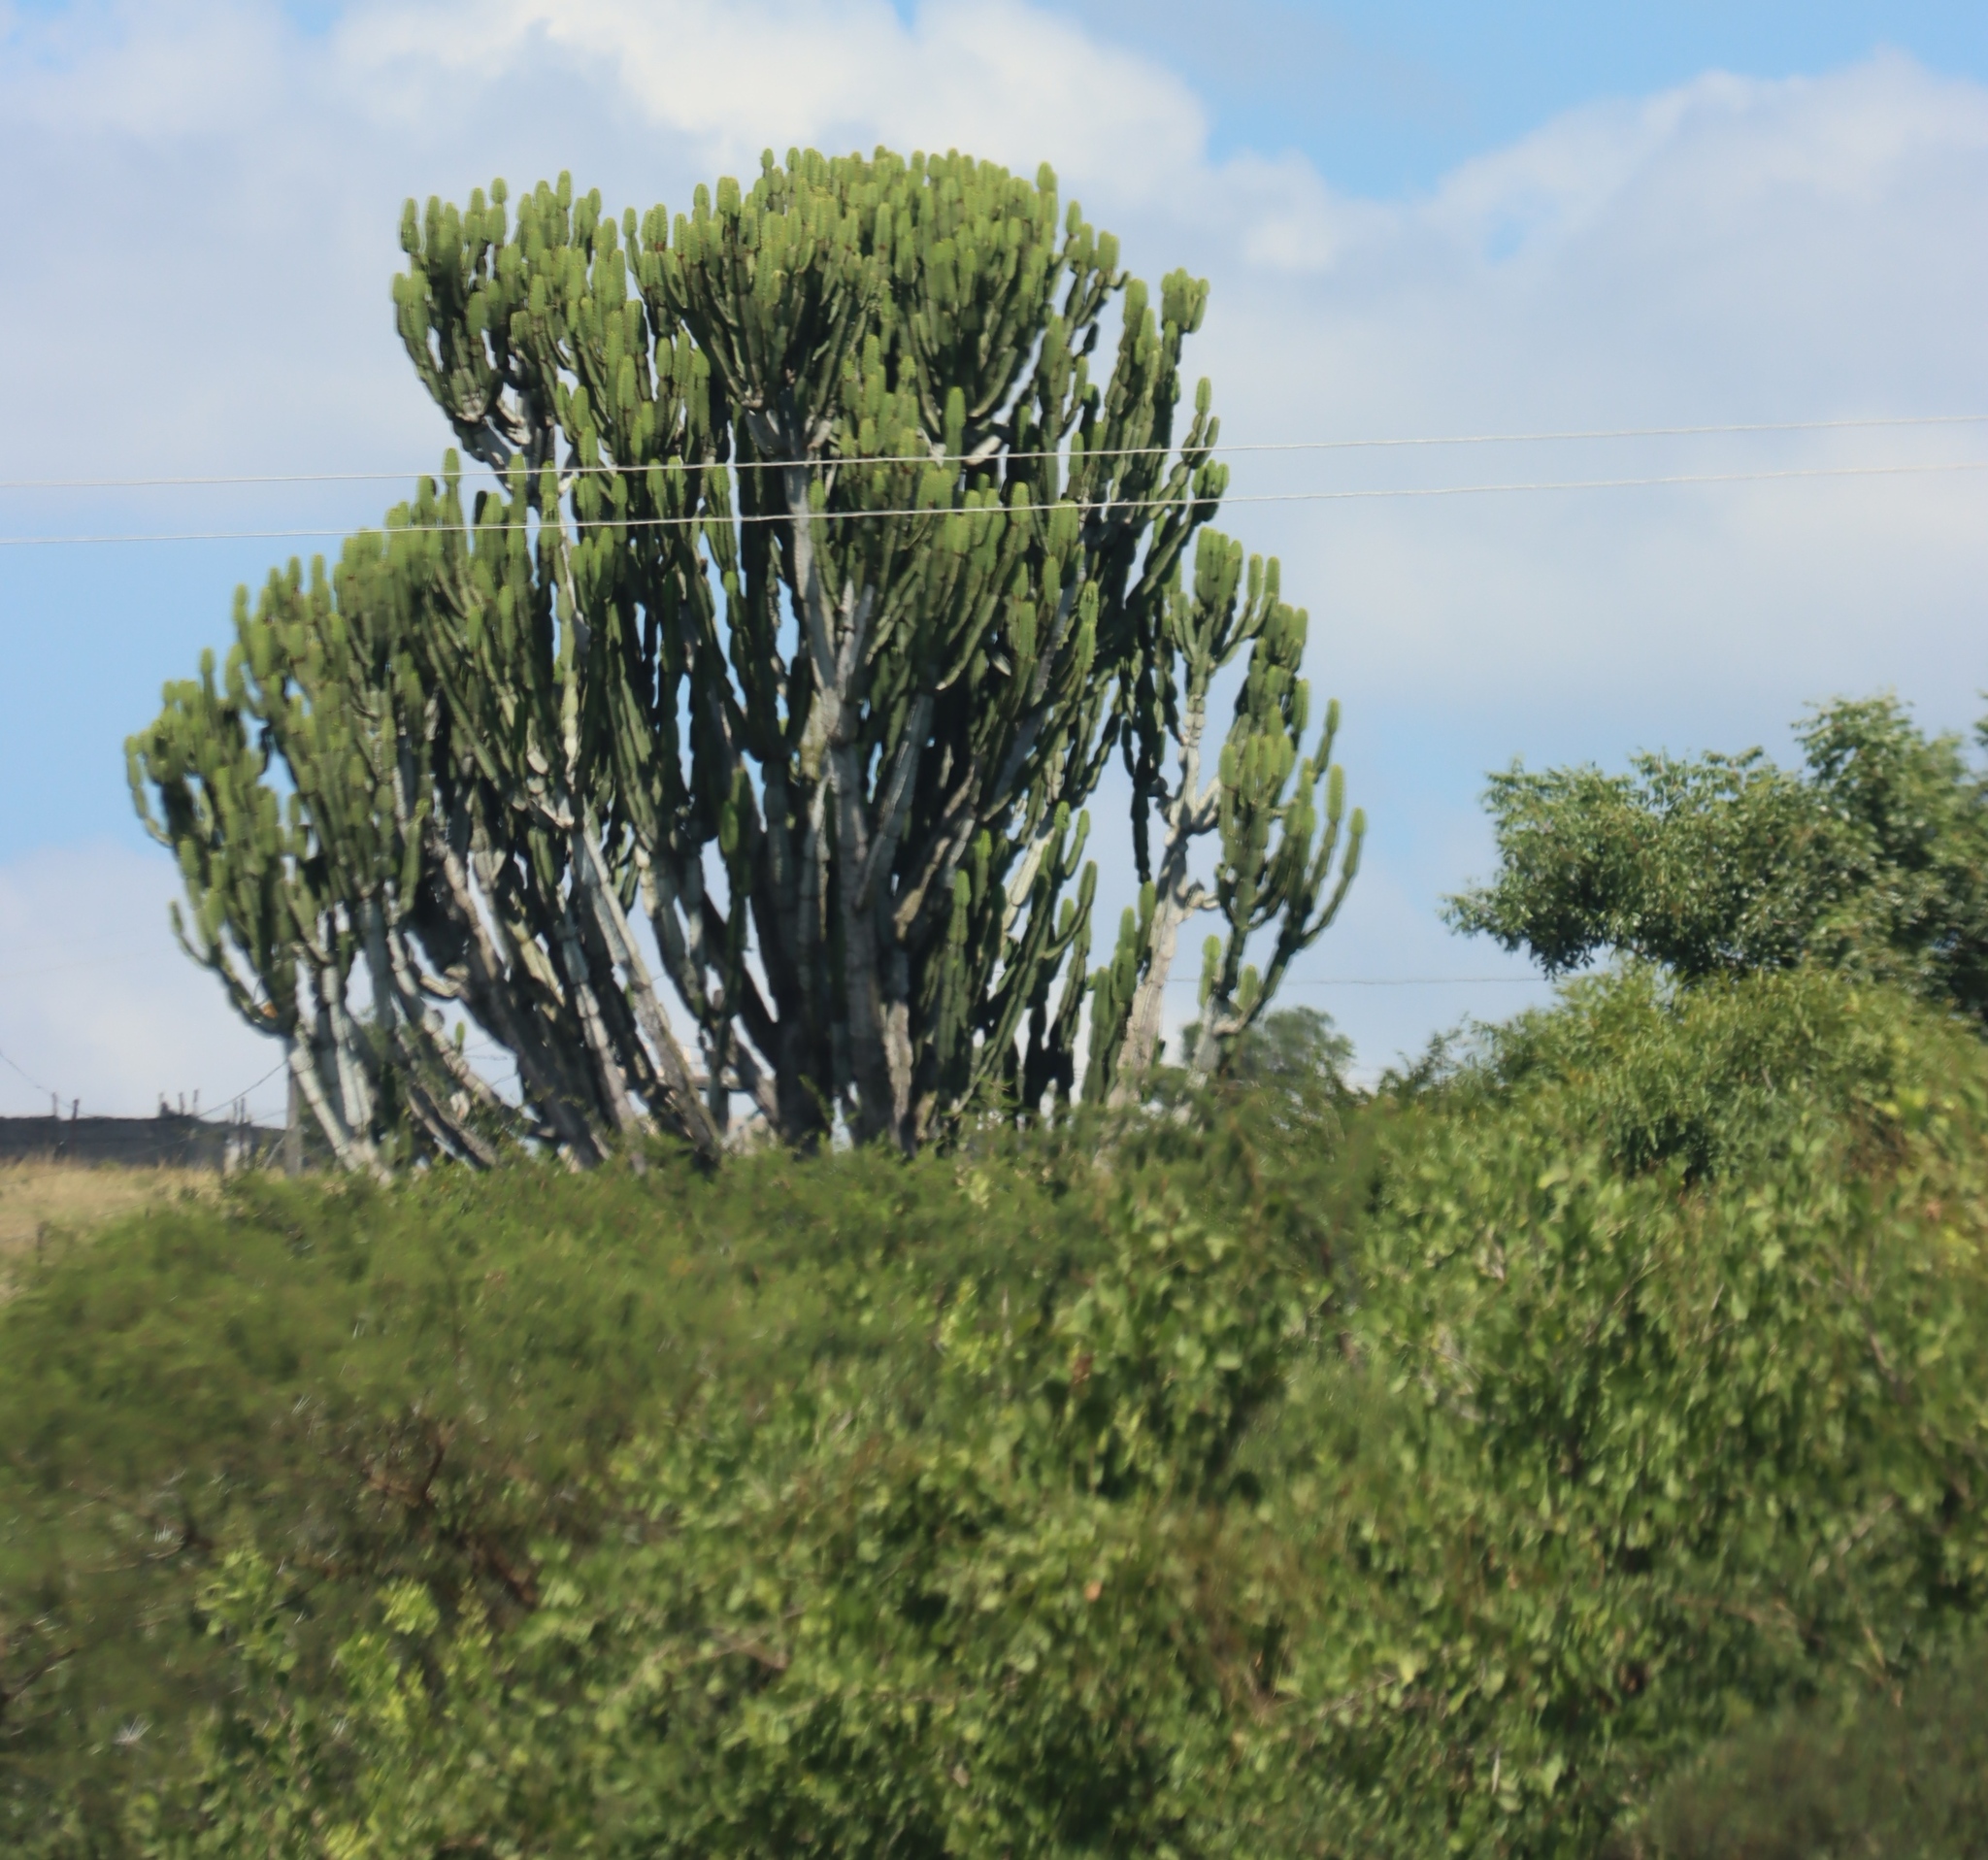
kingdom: Plantae
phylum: Tracheophyta
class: Magnoliopsida
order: Malpighiales
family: Euphorbiaceae
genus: Euphorbia
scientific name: Euphorbia ingens
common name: Cactus spurge
